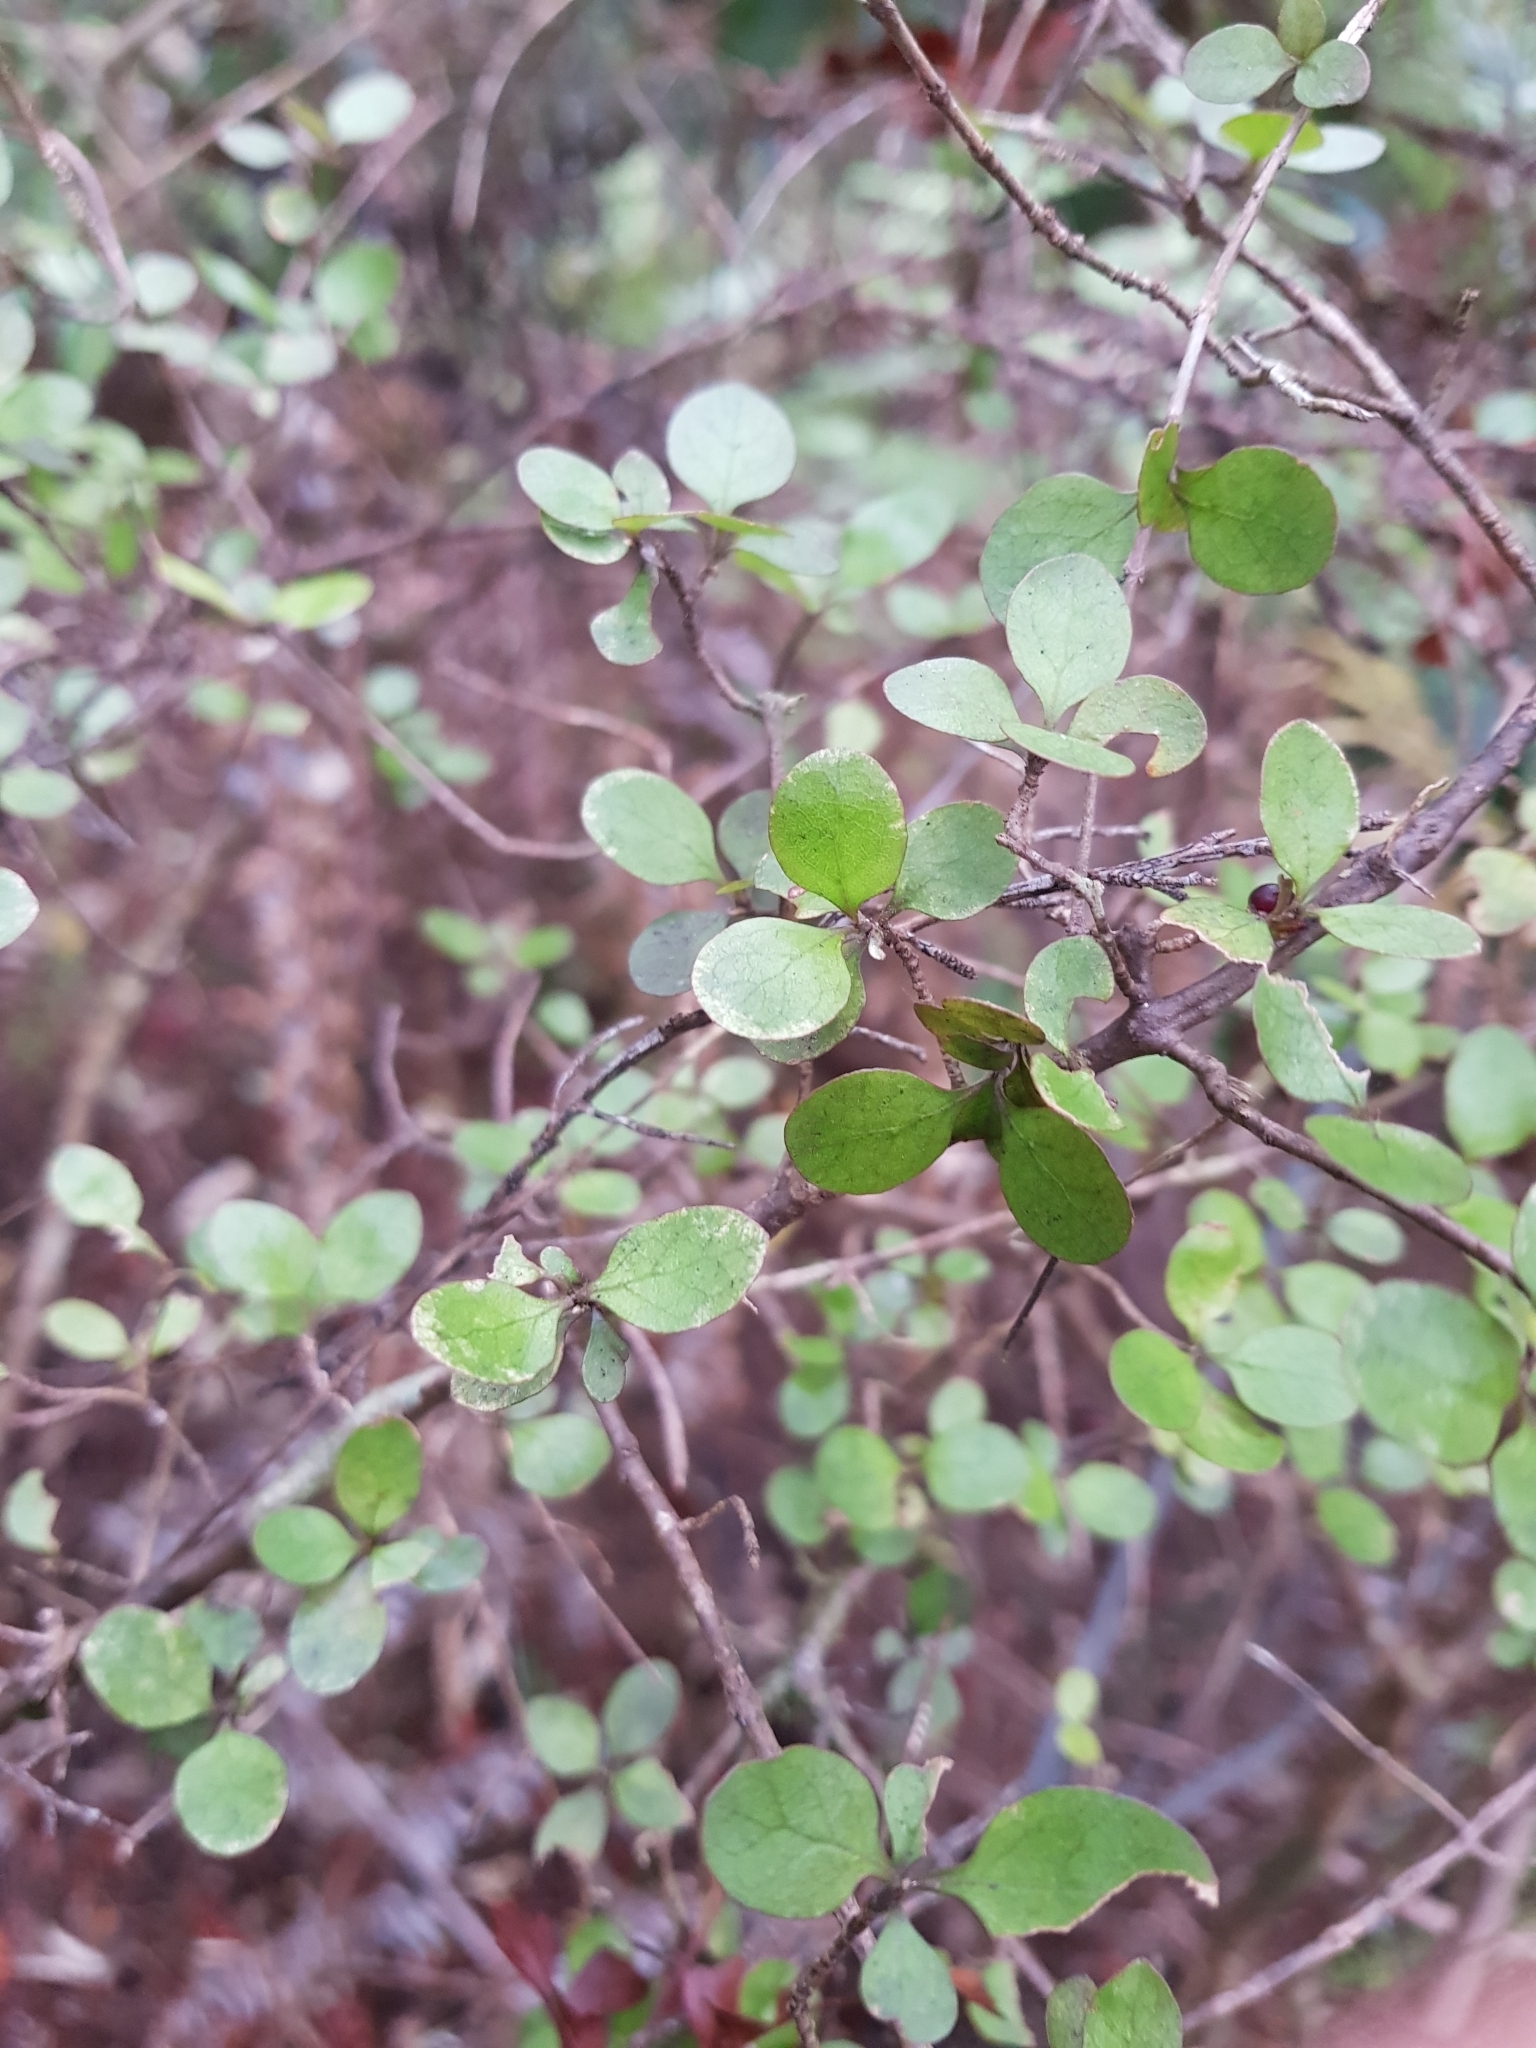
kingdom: Plantae
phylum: Tracheophyta
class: Magnoliopsida
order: Gentianales
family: Rubiaceae
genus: Coprosma
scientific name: Coprosma rhamnoides
